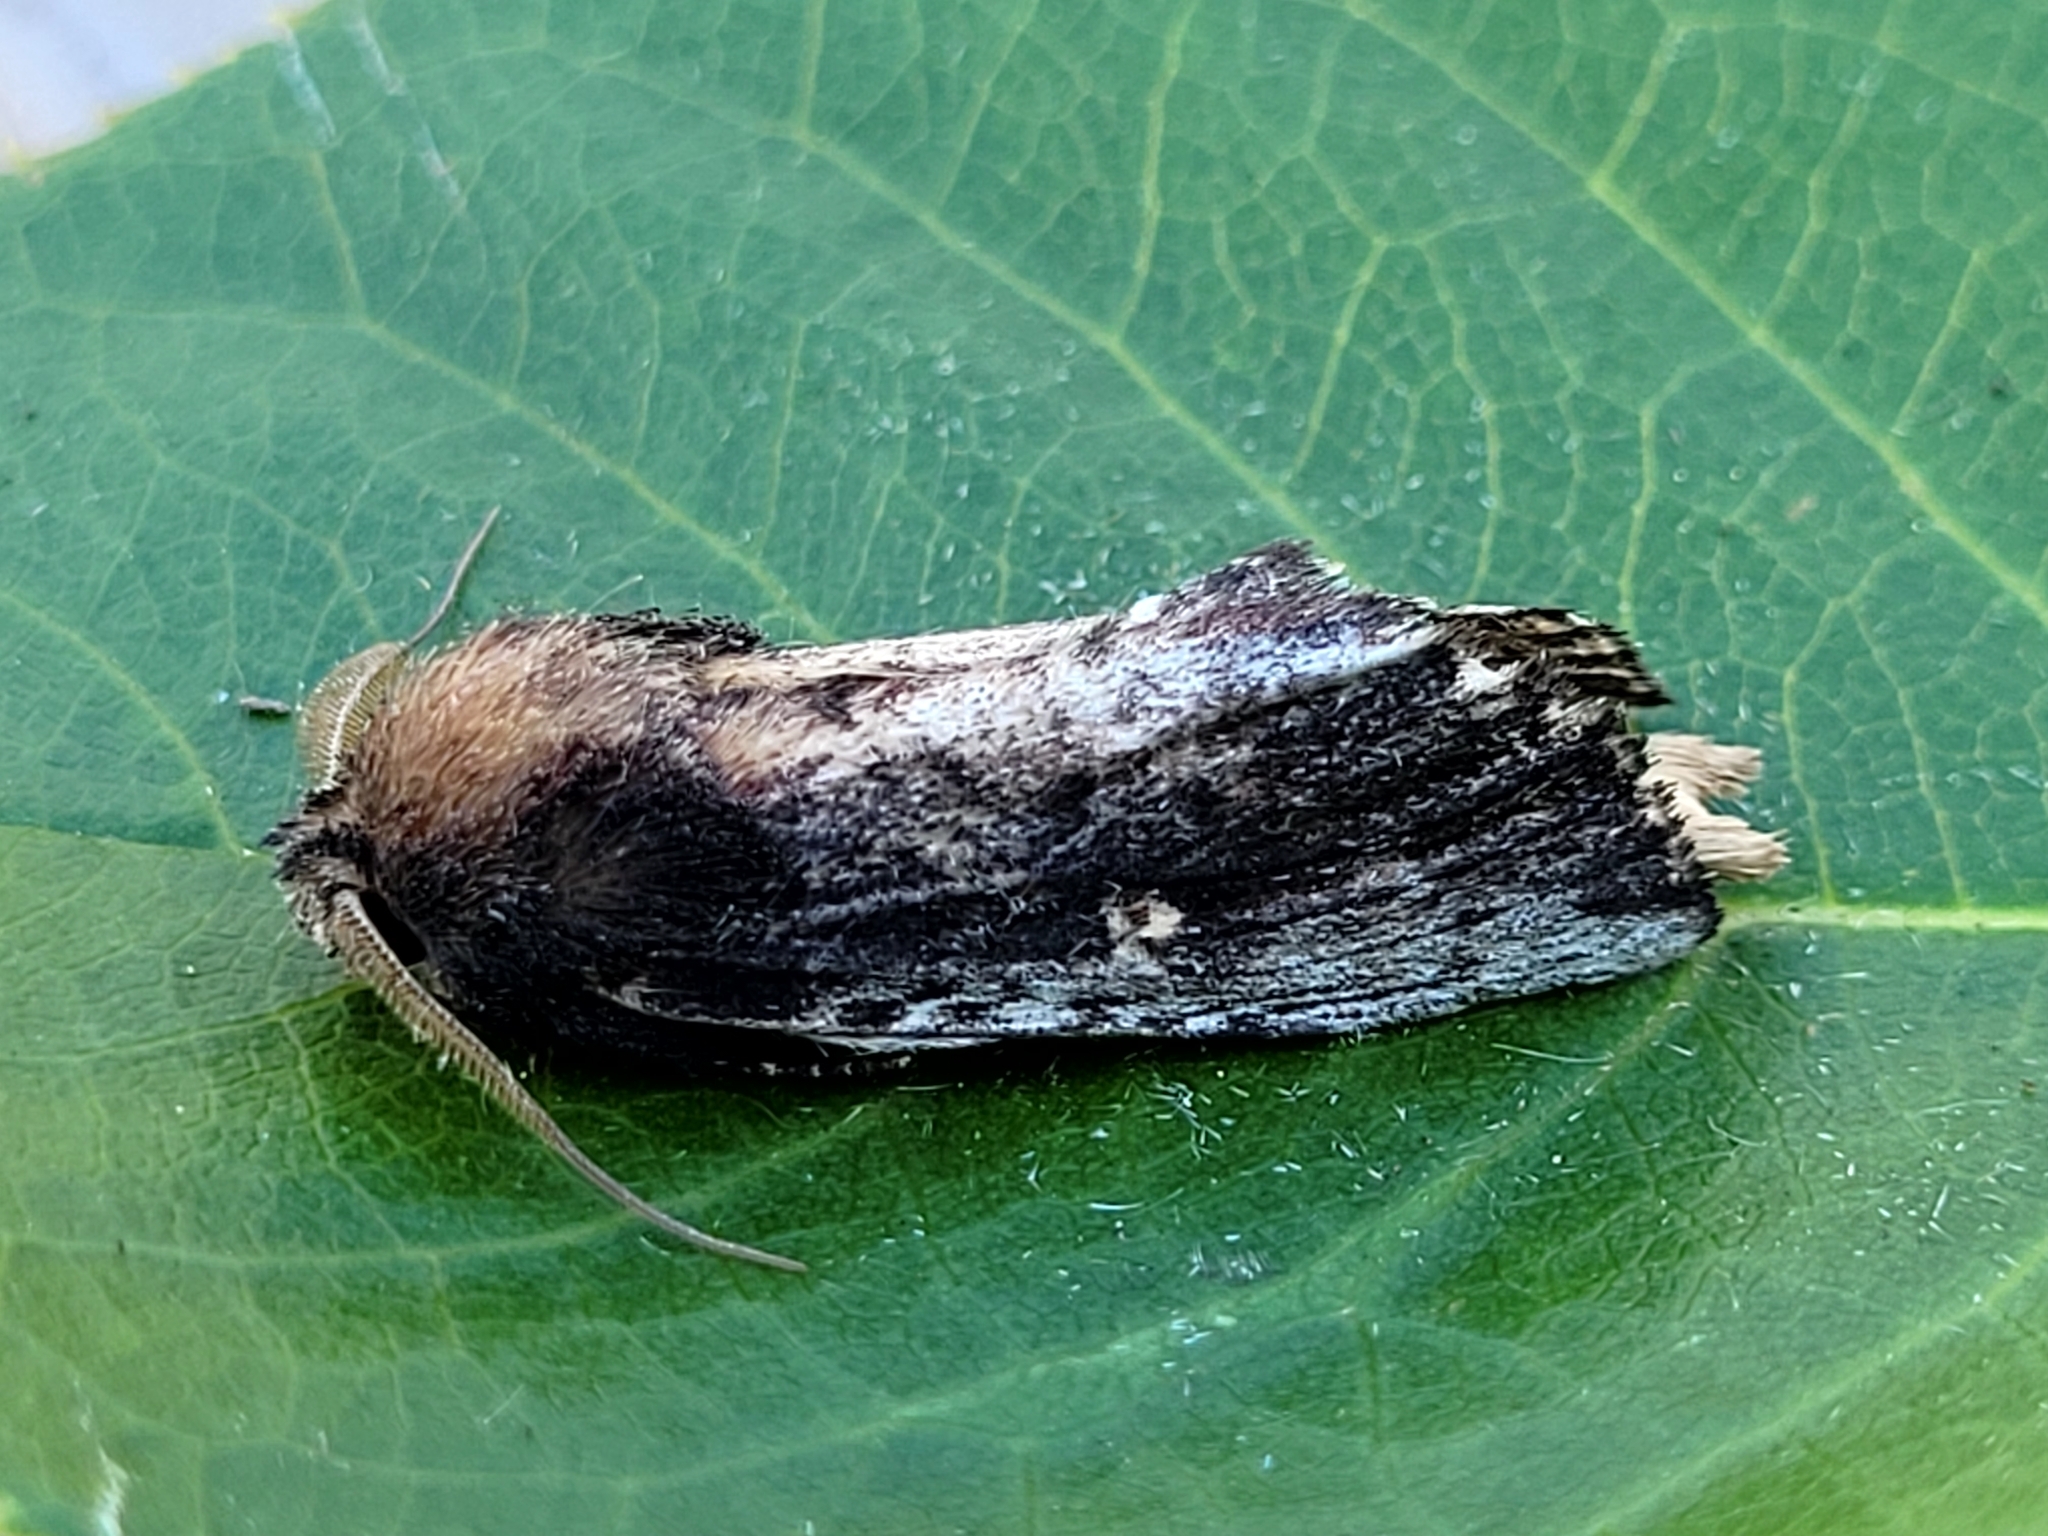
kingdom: Animalia
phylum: Arthropoda
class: Insecta
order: Lepidoptera
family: Notodontidae
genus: Schizura
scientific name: Schizura ipomaeae
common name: Morning-glory prominent
